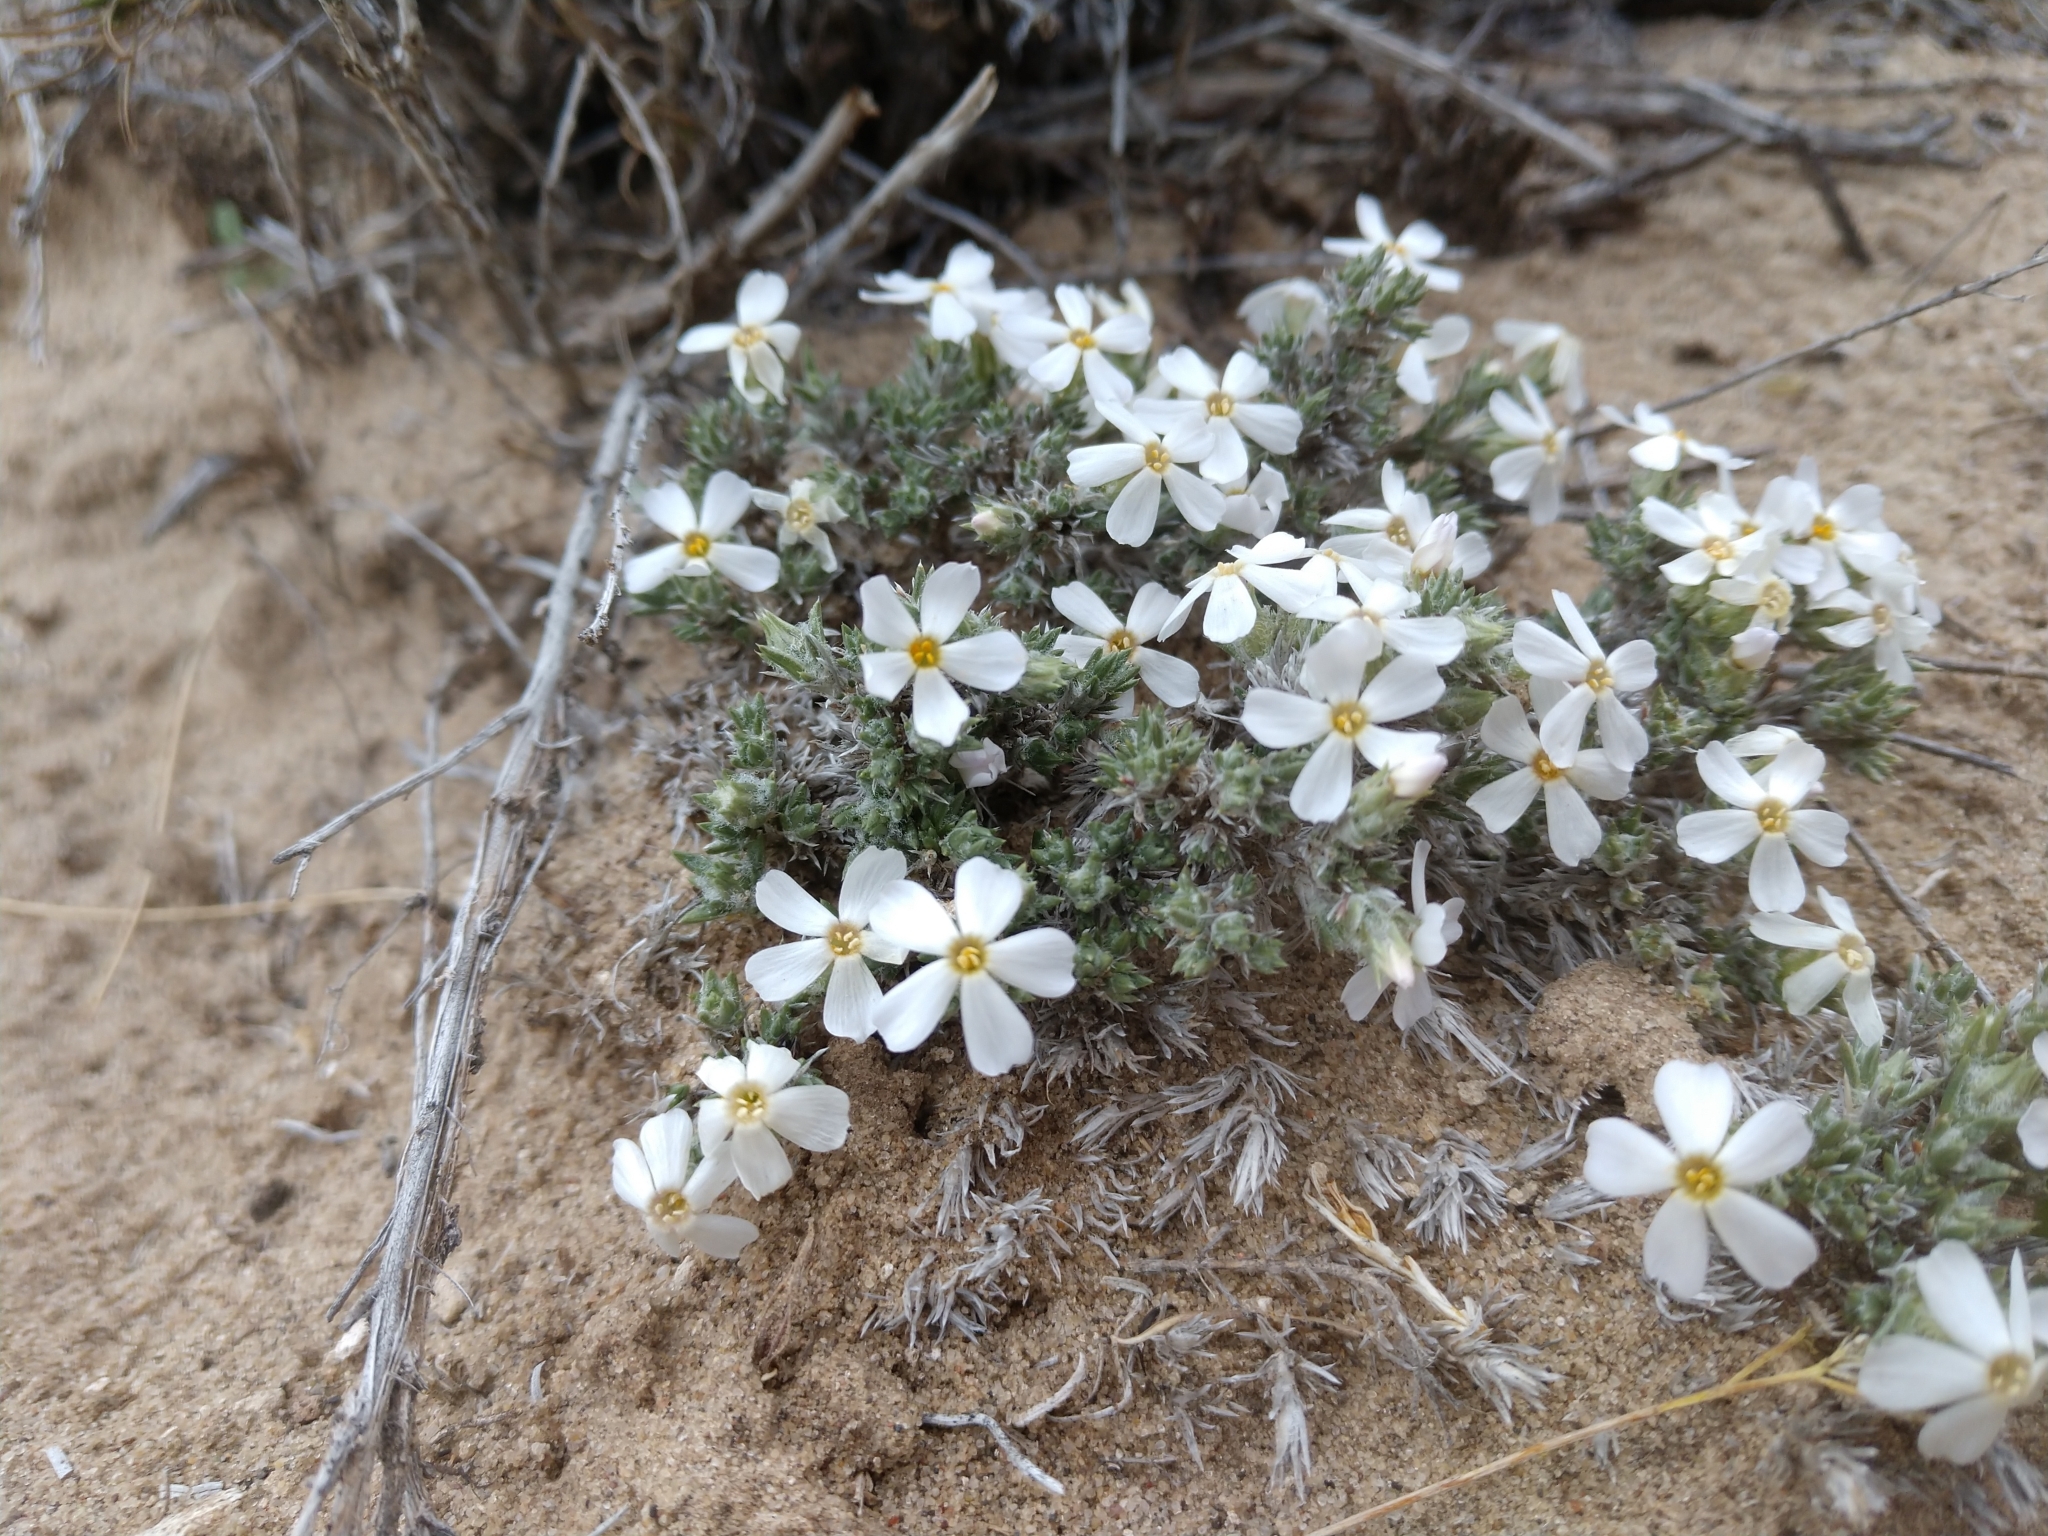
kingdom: Plantae
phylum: Tracheophyta
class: Magnoliopsida
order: Ericales
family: Polemoniaceae
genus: Phlox
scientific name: Phlox hoodii
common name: Moss phlox
